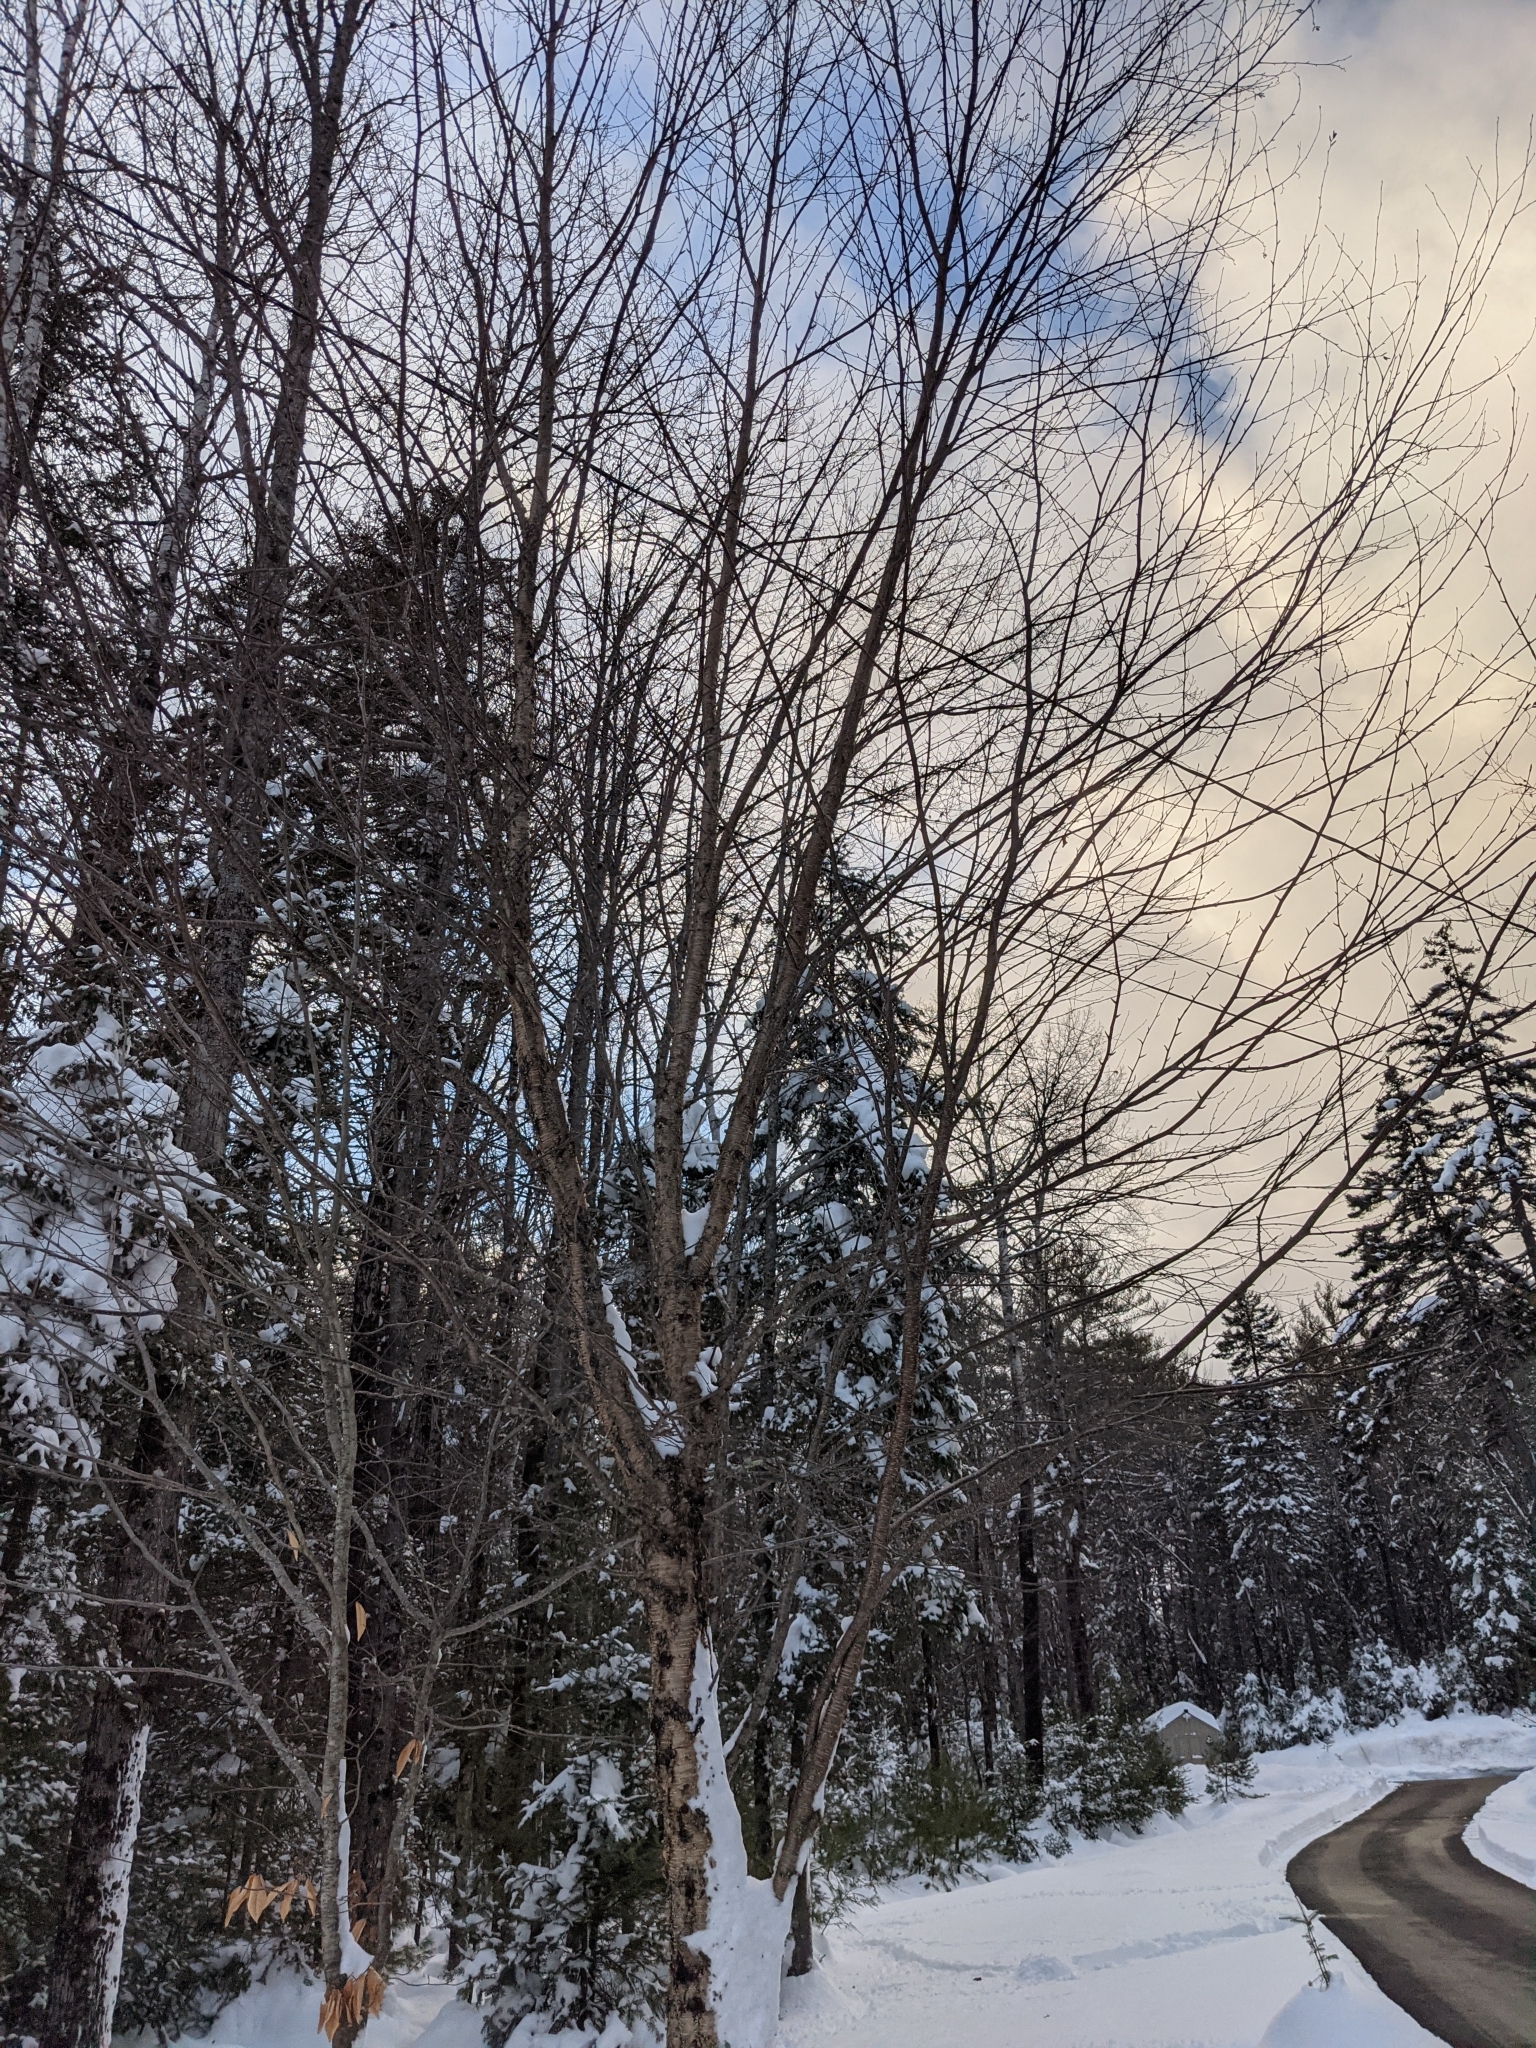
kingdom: Plantae
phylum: Tracheophyta
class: Magnoliopsida
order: Fagales
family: Betulaceae
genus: Betula
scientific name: Betula alleghaniensis
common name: Yellow birch
